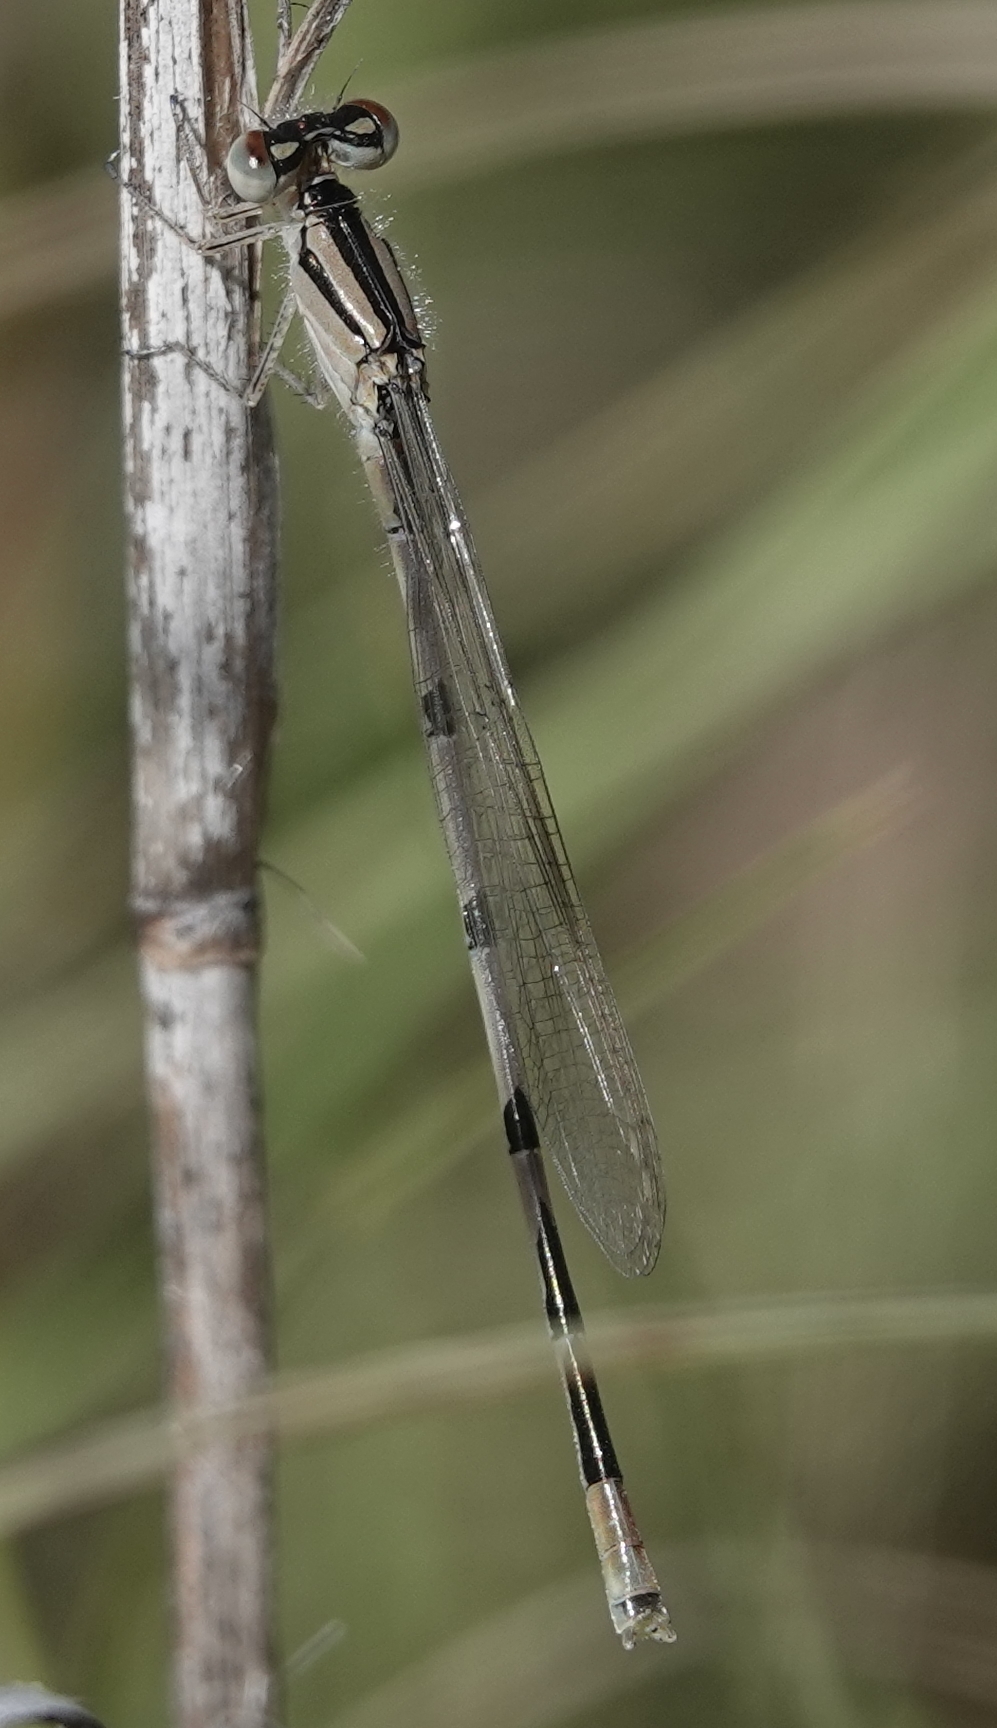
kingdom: Animalia
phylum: Arthropoda
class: Insecta
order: Odonata
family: Coenagrionidae
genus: Enallagma
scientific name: Enallagma civile
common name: Damselfly
